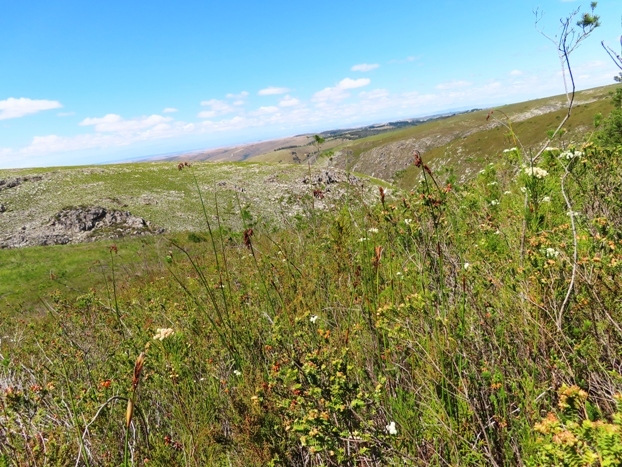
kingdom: Plantae
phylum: Tracheophyta
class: Magnoliopsida
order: Ericales
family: Ericaceae
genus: Erica
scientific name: Erica blenna
